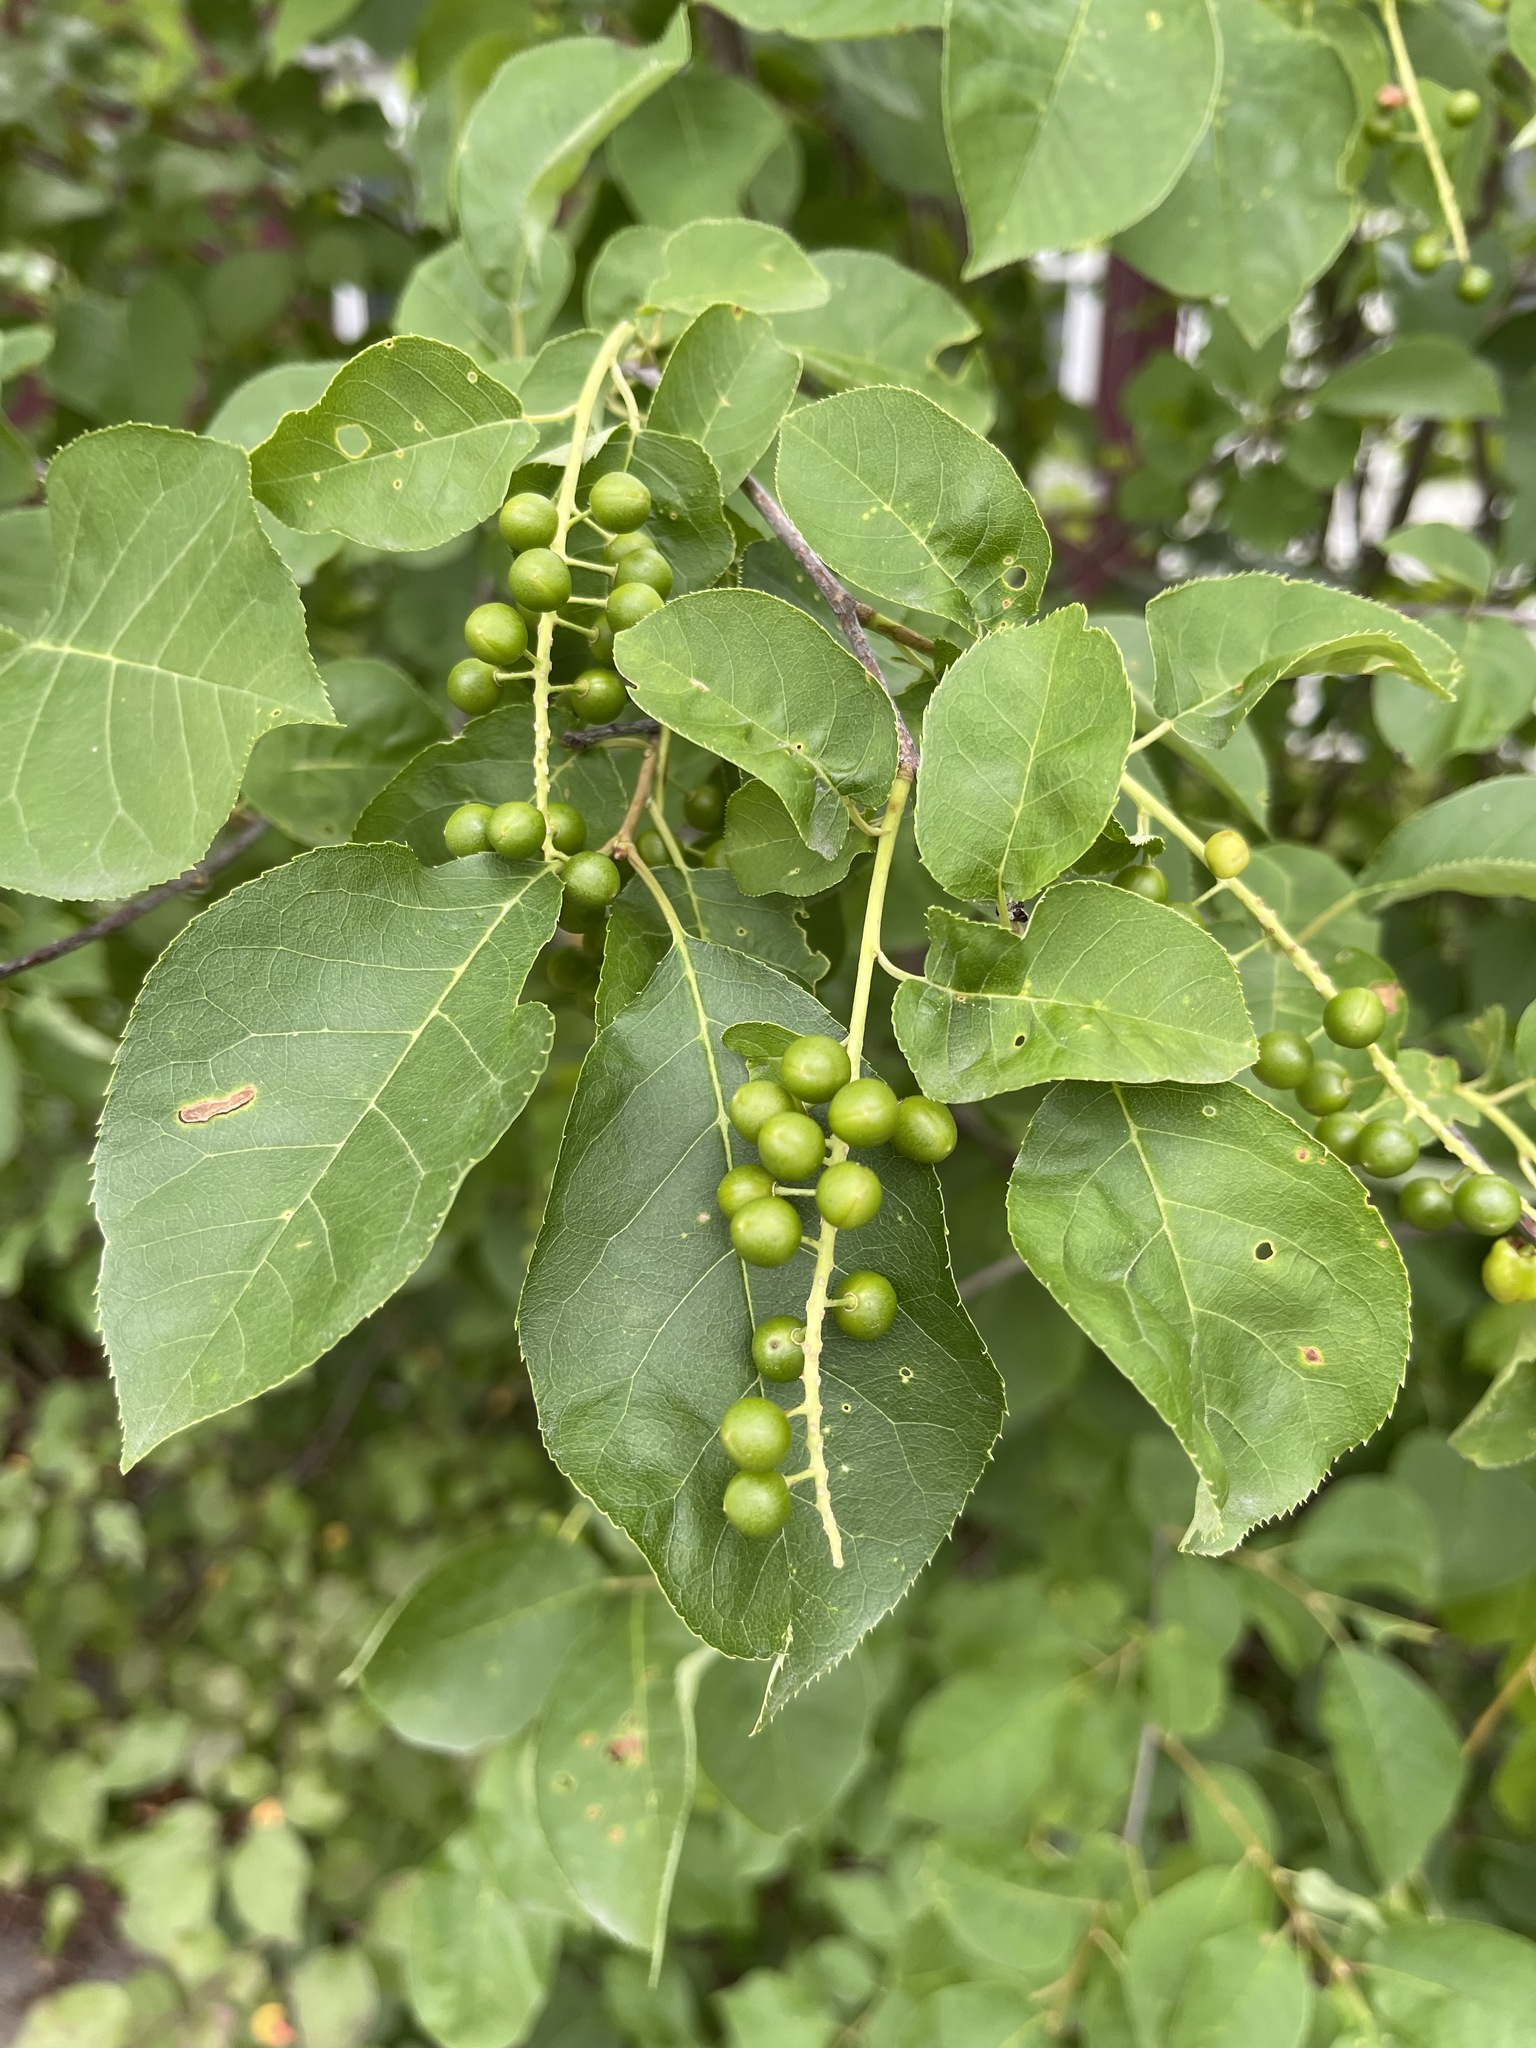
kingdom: Plantae
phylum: Tracheophyta
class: Magnoliopsida
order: Rosales
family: Rosaceae
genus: Prunus
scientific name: Prunus virginiana
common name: Chokecherry
